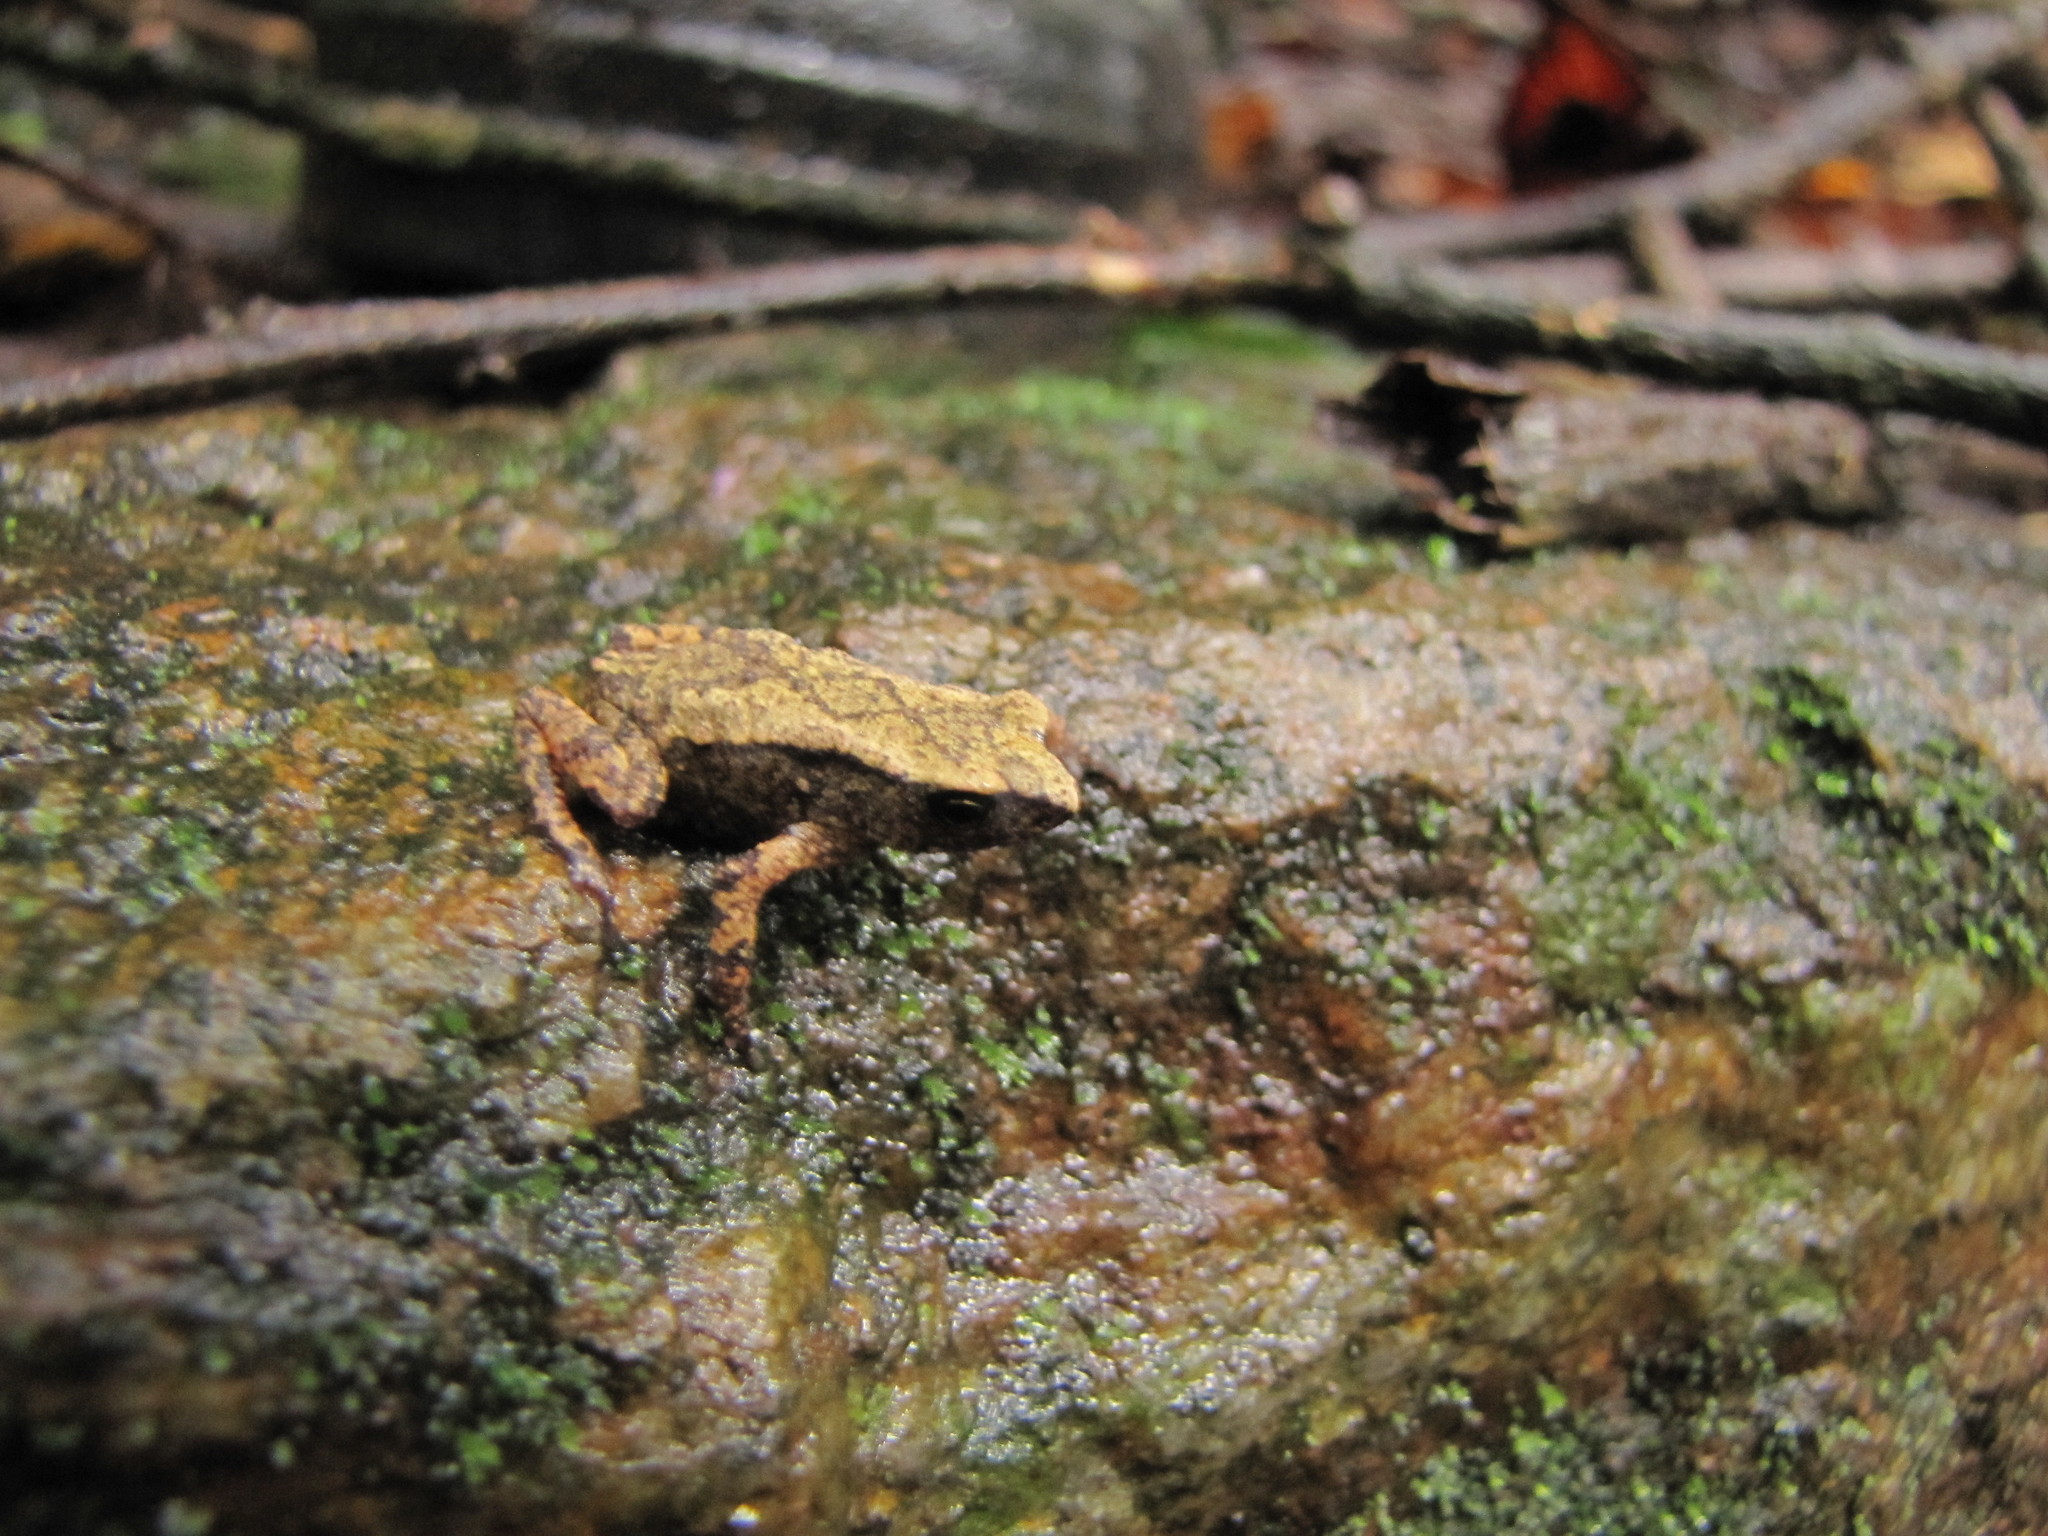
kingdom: Animalia
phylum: Chordata
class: Amphibia
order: Anura
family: Bufonidae
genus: Duttaphrynus
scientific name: Duttaphrynus melanostictus
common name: Common sunda toad
